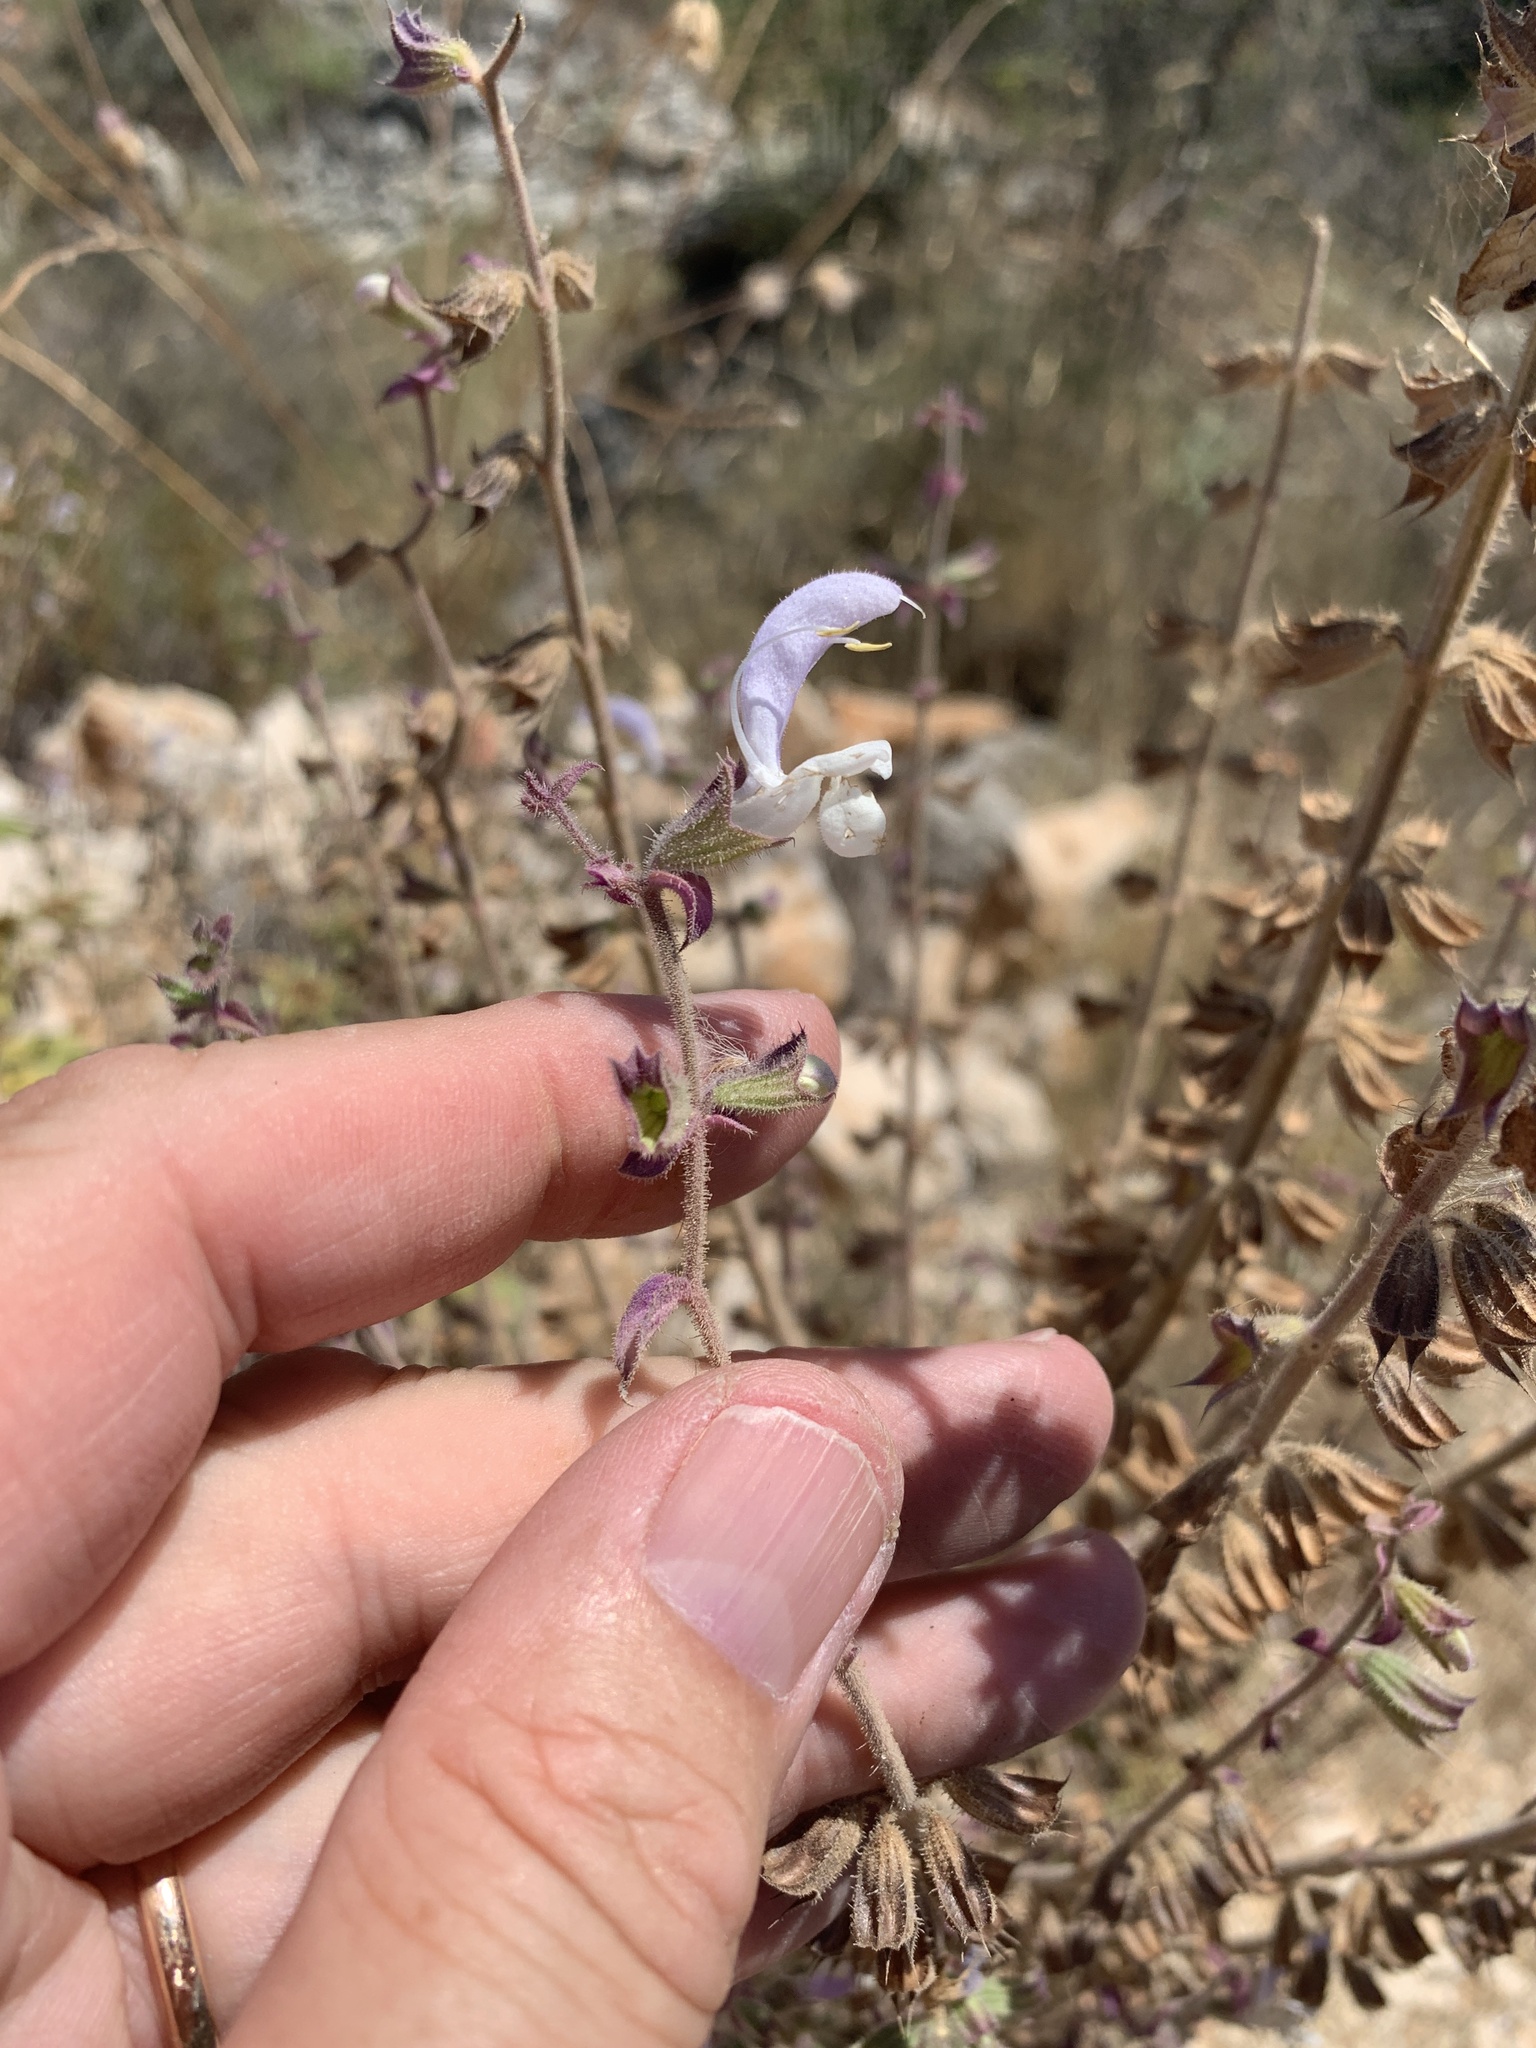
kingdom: Plantae
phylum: Tracheophyta
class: Magnoliopsida
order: Lamiales
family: Lamiaceae
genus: Salvia
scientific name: Salvia sclarea
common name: Clary
